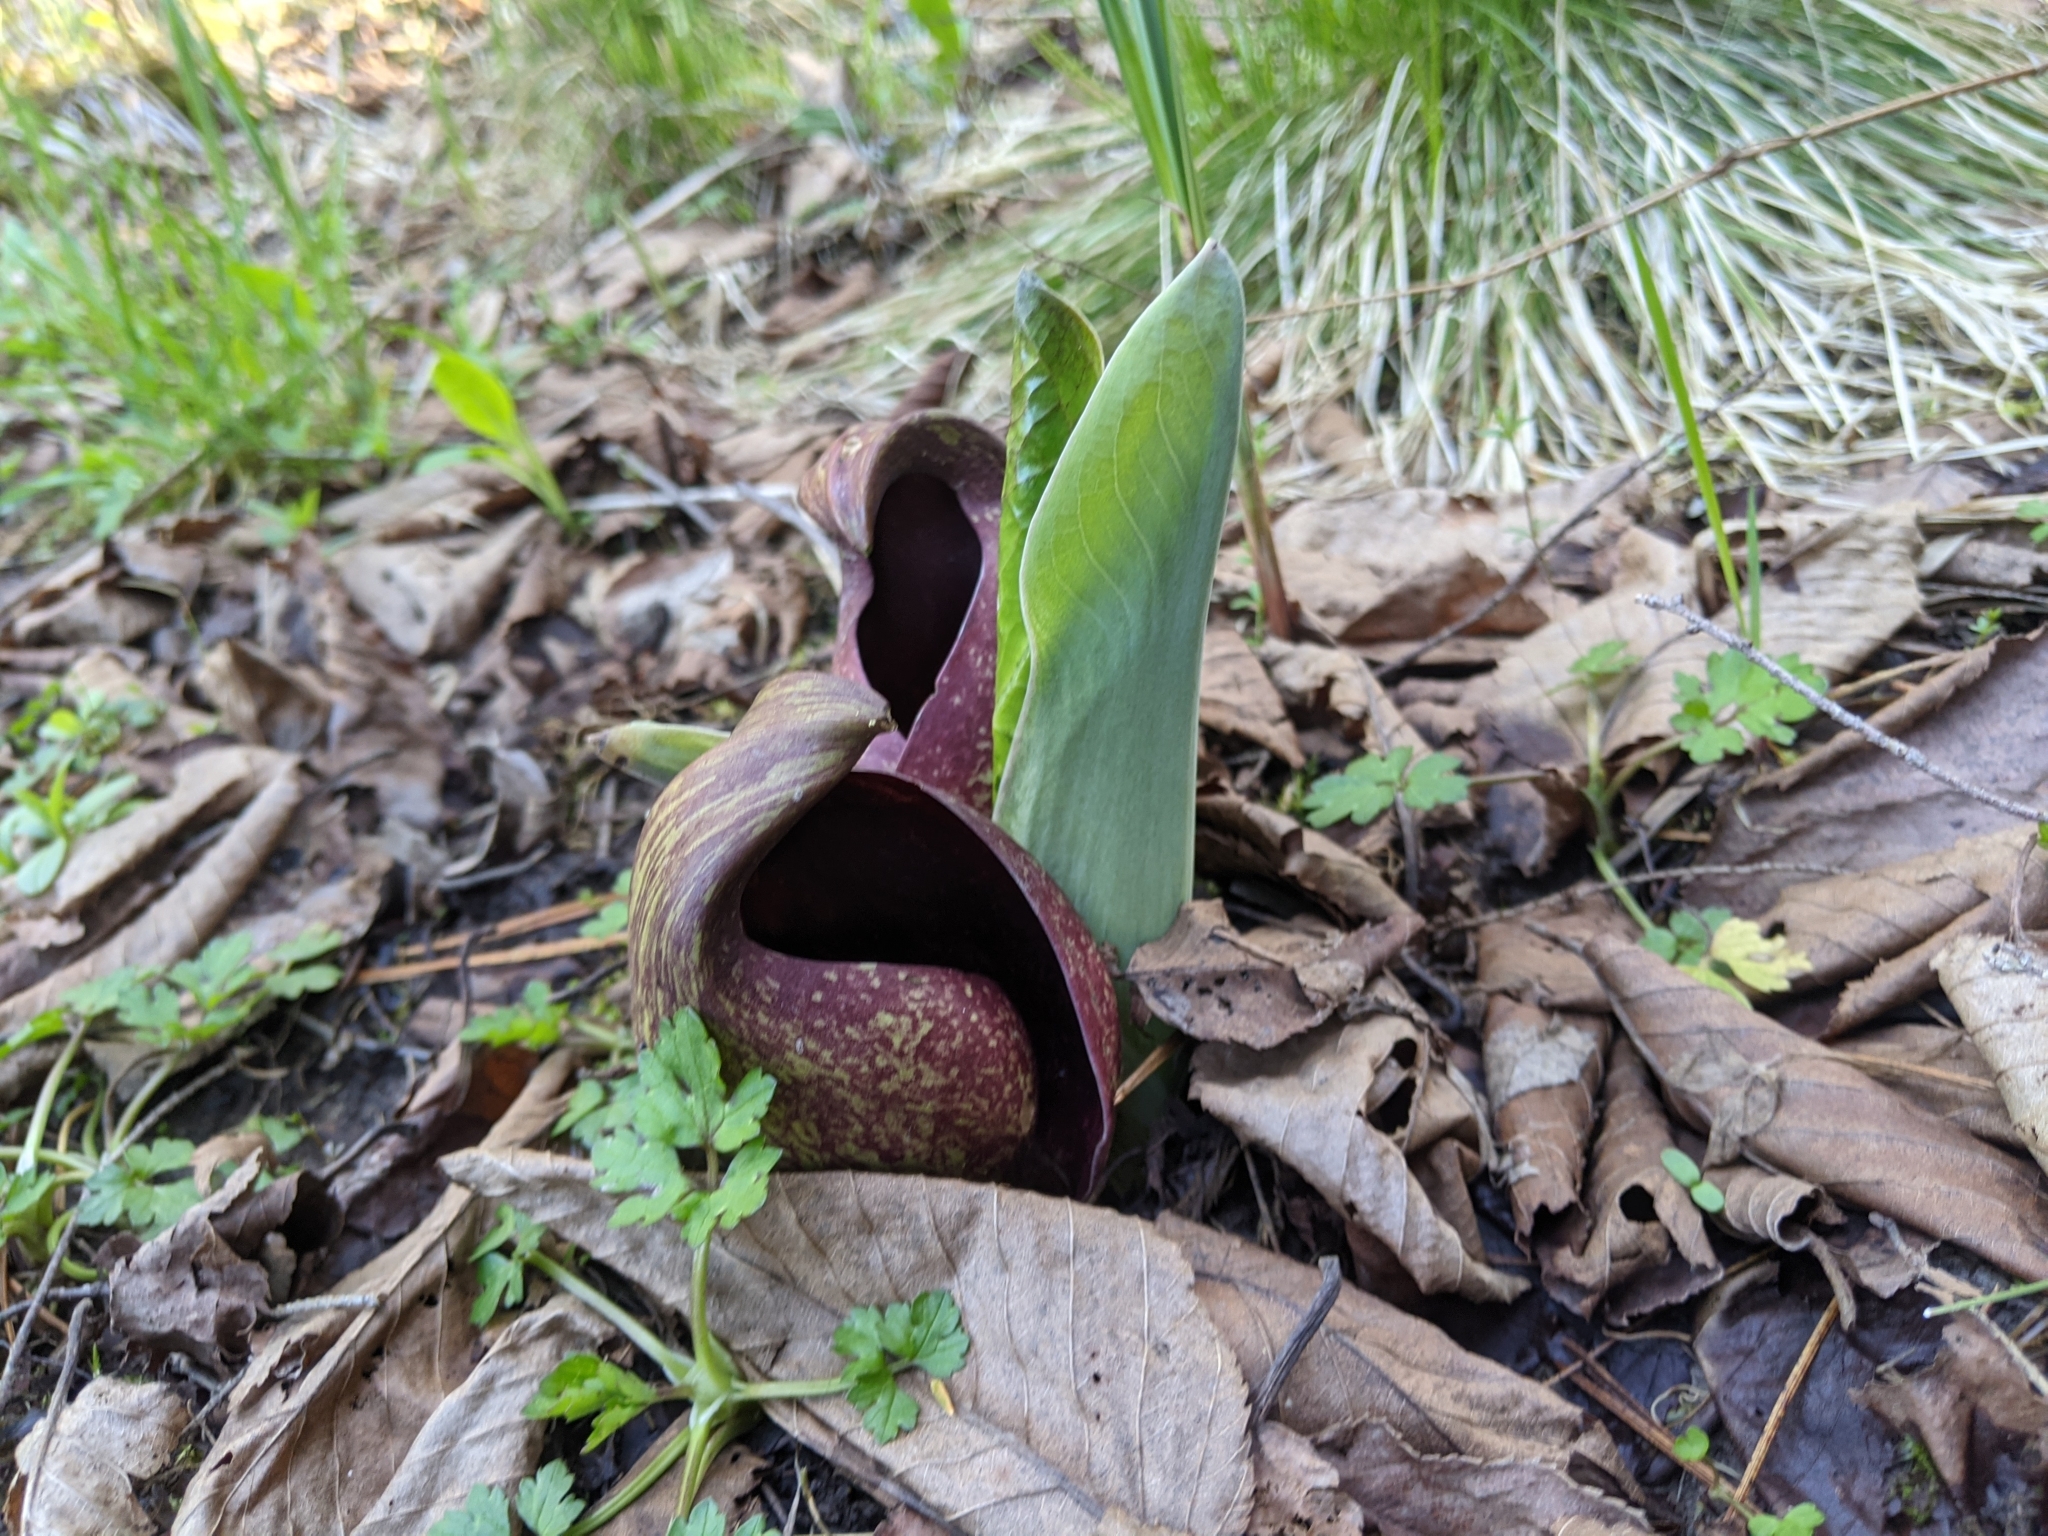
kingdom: Plantae
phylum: Tracheophyta
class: Liliopsida
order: Alismatales
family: Araceae
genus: Symplocarpus
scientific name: Symplocarpus foetidus
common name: Eastern skunk cabbage
